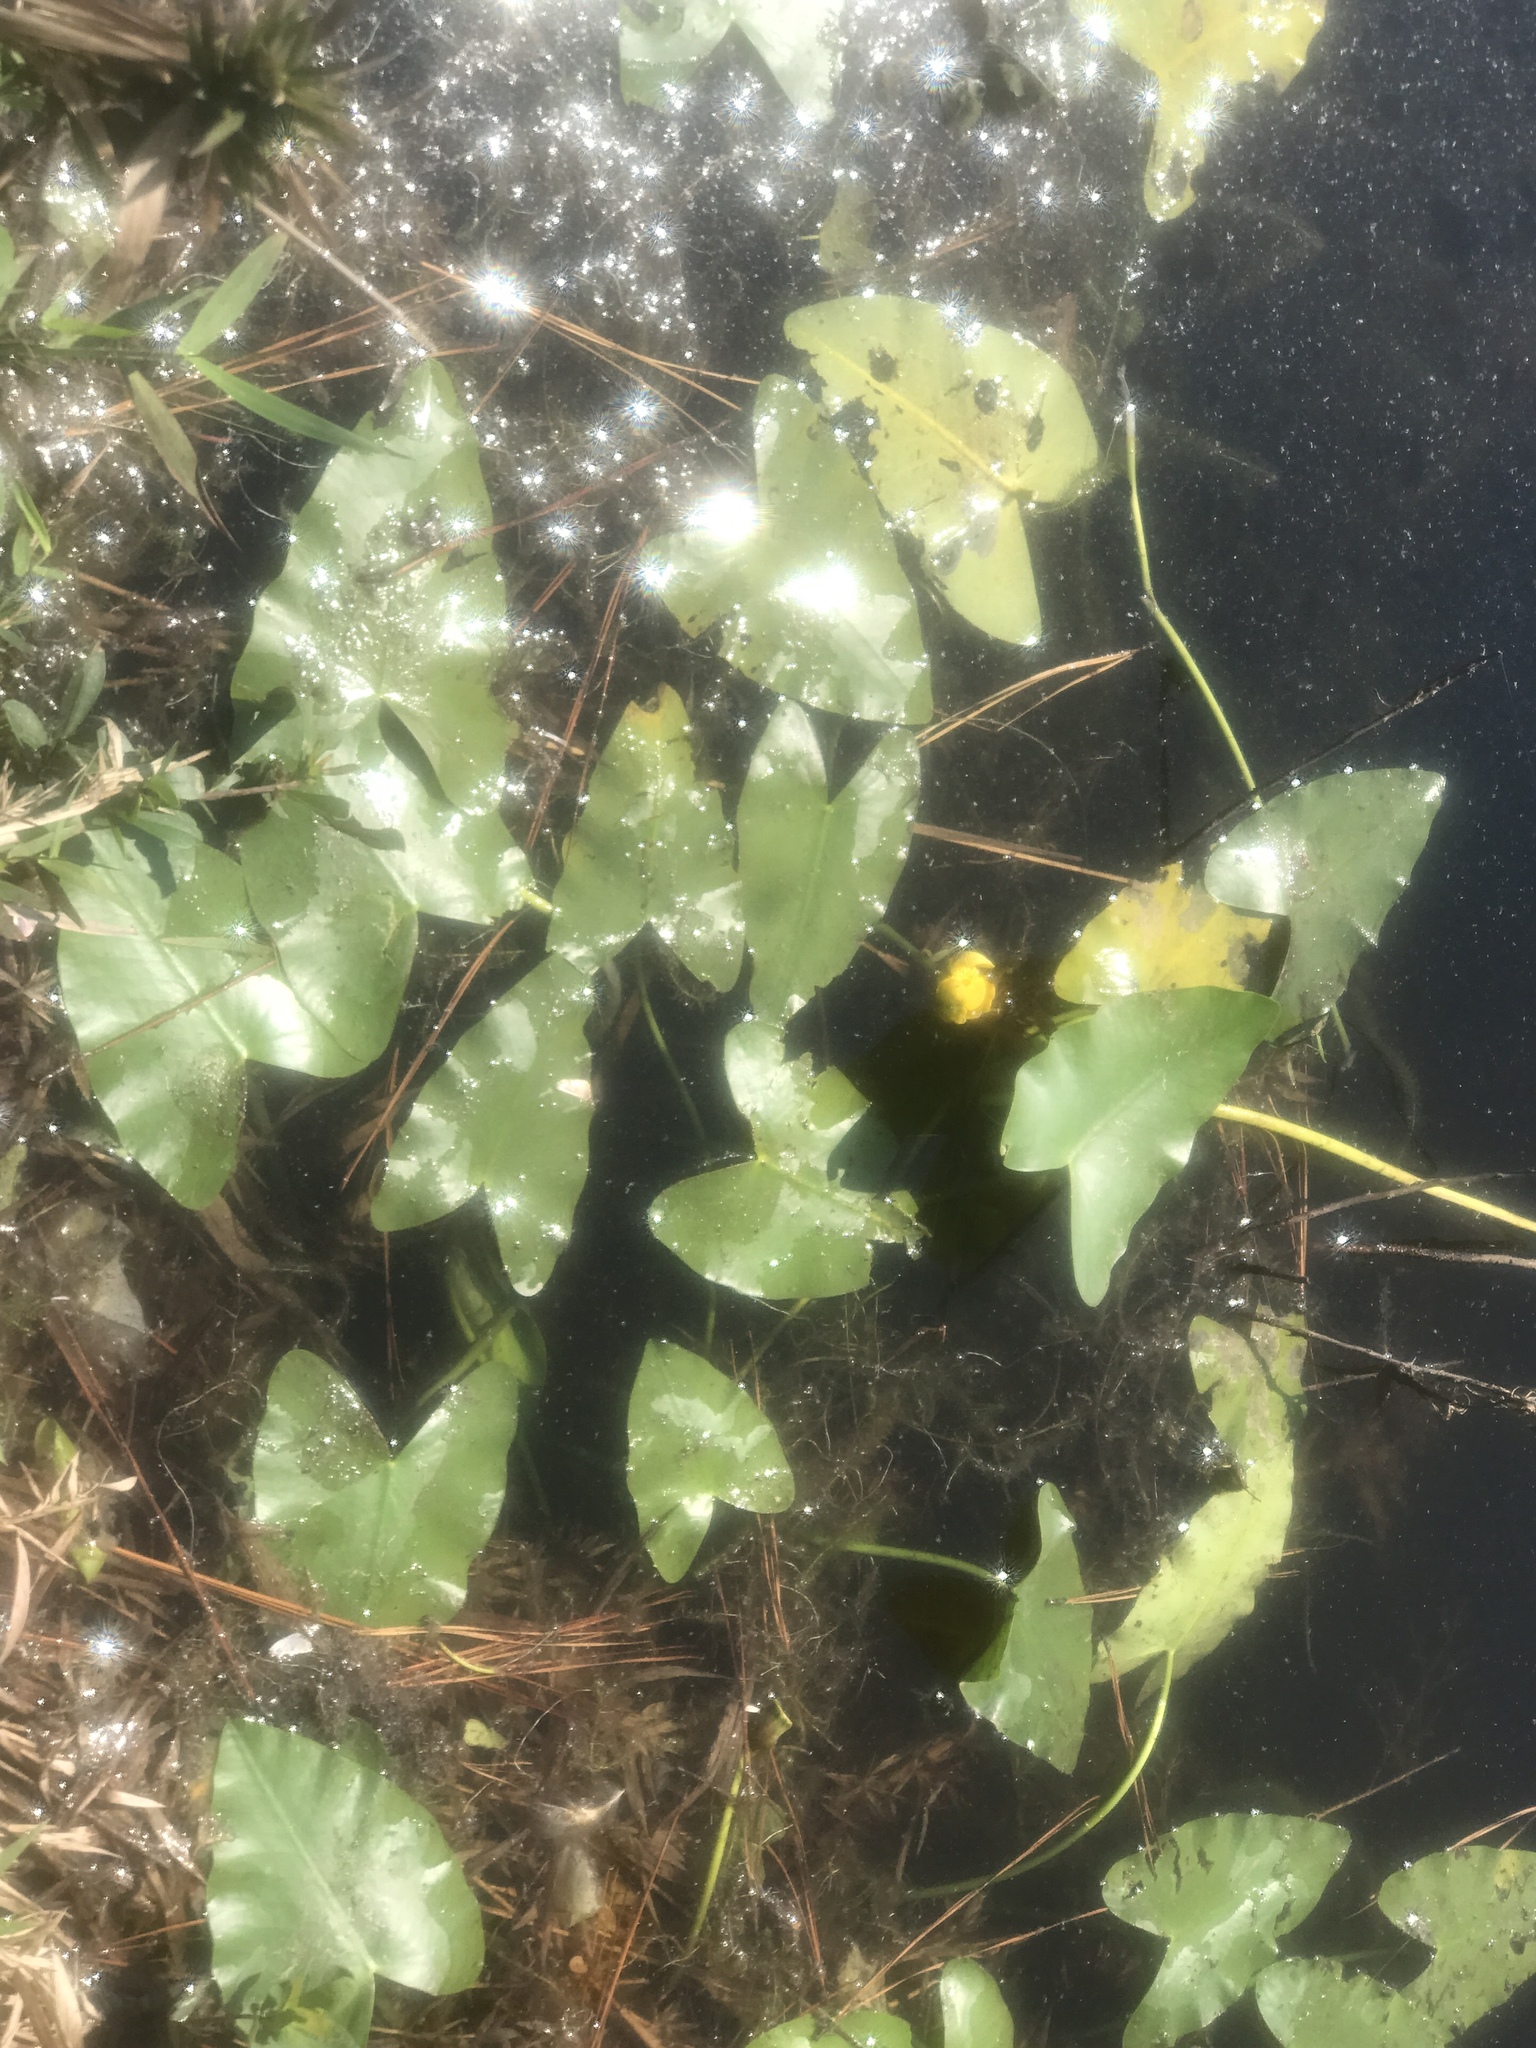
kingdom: Plantae
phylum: Tracheophyta
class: Magnoliopsida
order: Nymphaeales
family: Nymphaeaceae
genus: Nuphar
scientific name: Nuphar advena
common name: Spatter-dock
